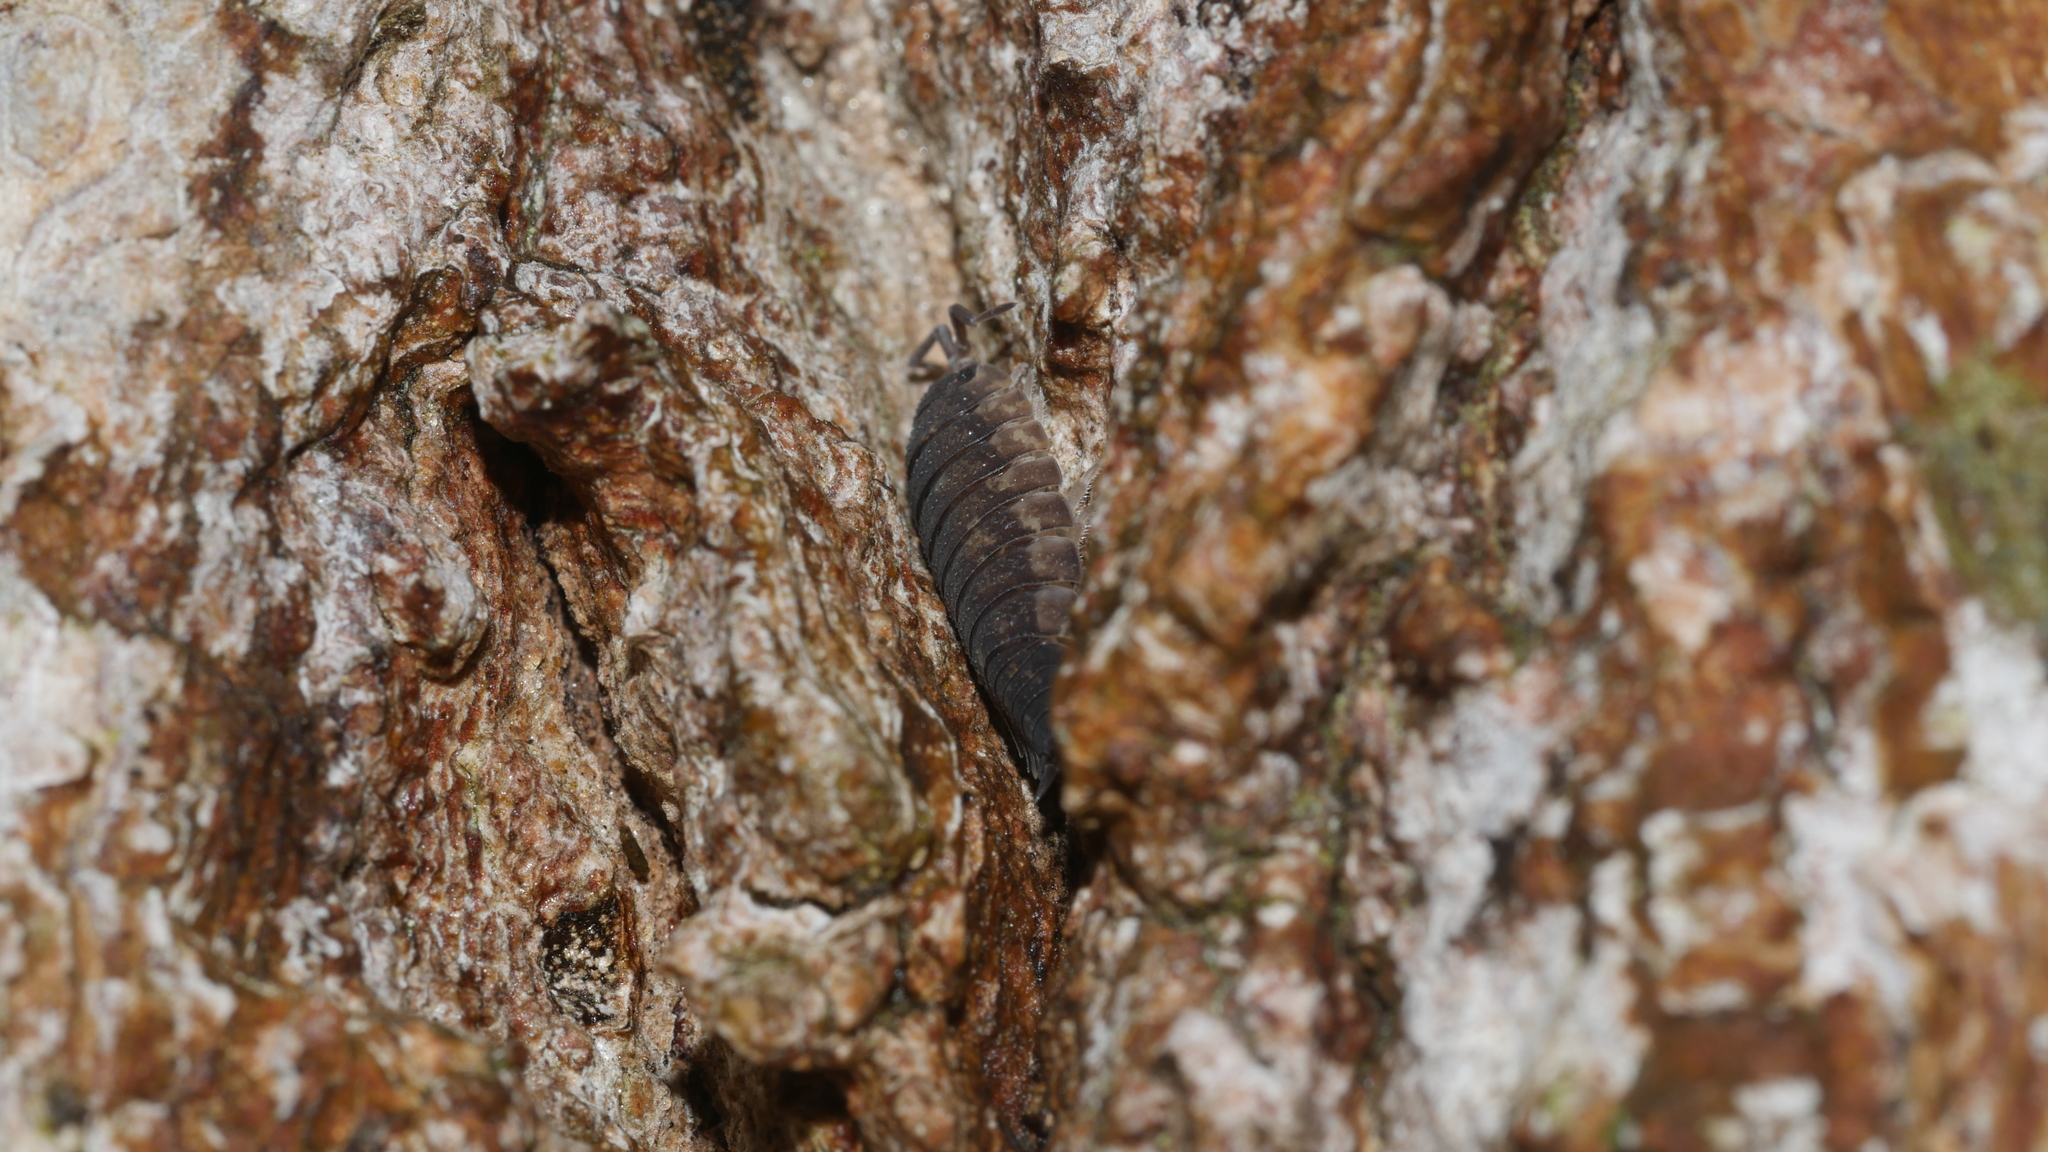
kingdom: Animalia
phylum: Arthropoda
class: Malacostraca
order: Isopoda
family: Porcellionidae
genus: Porcellio
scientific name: Porcellio scaber
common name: Common rough woodlouse
